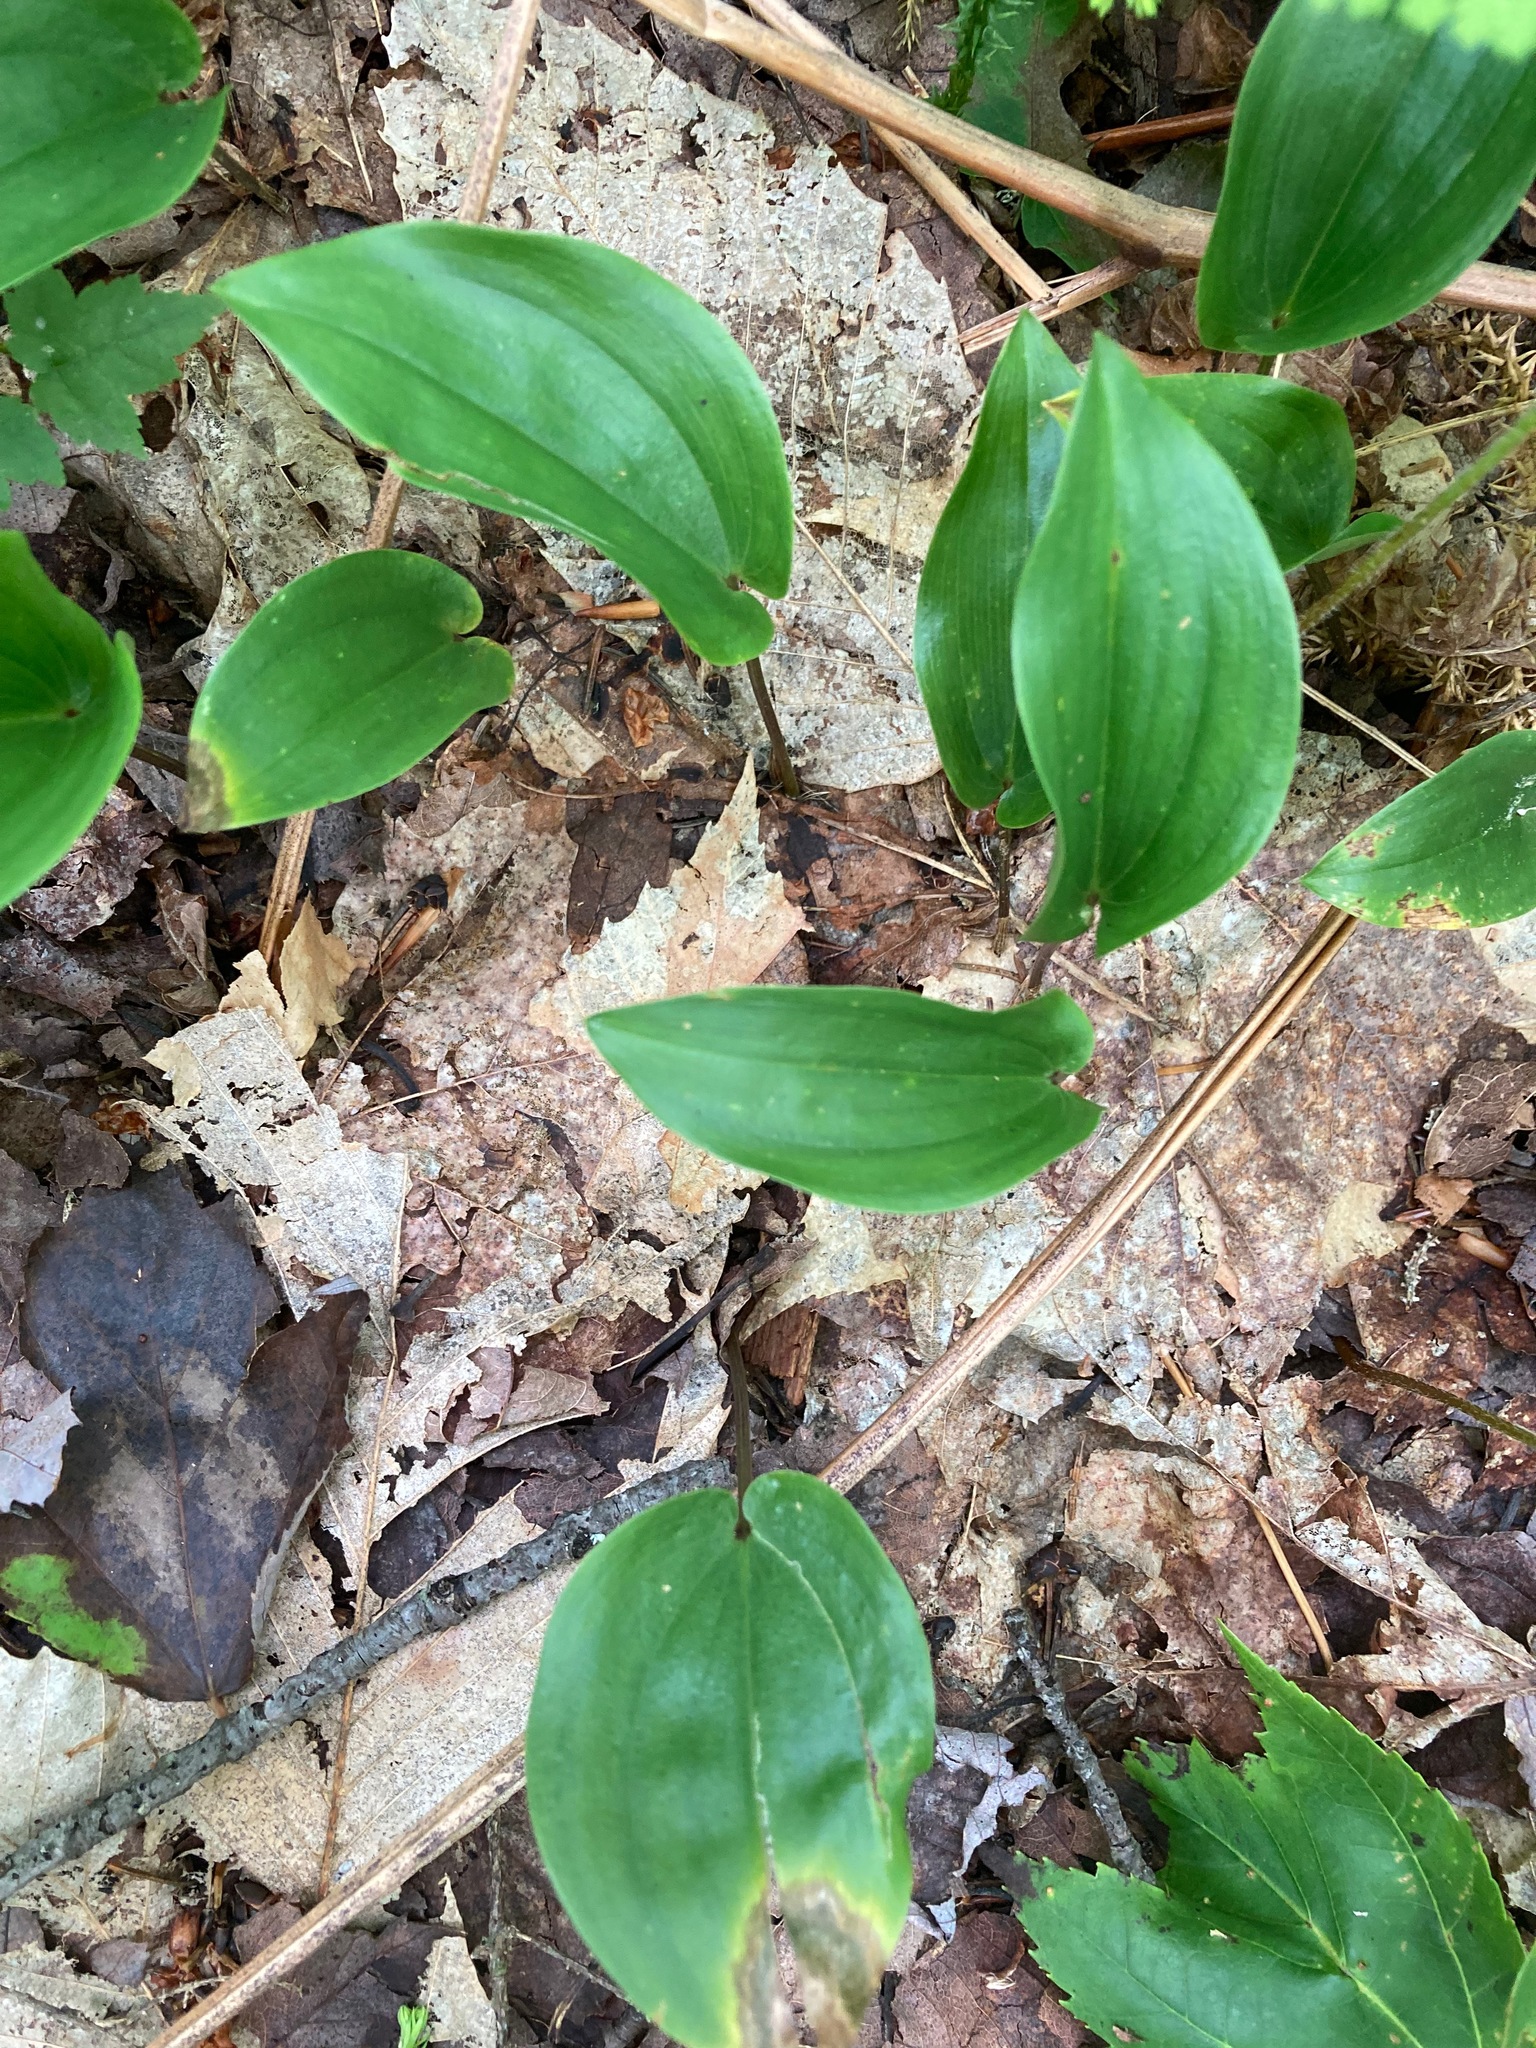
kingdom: Plantae
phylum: Tracheophyta
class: Liliopsida
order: Asparagales
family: Asparagaceae
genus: Maianthemum
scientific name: Maianthemum canadense
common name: False lily-of-the-valley
